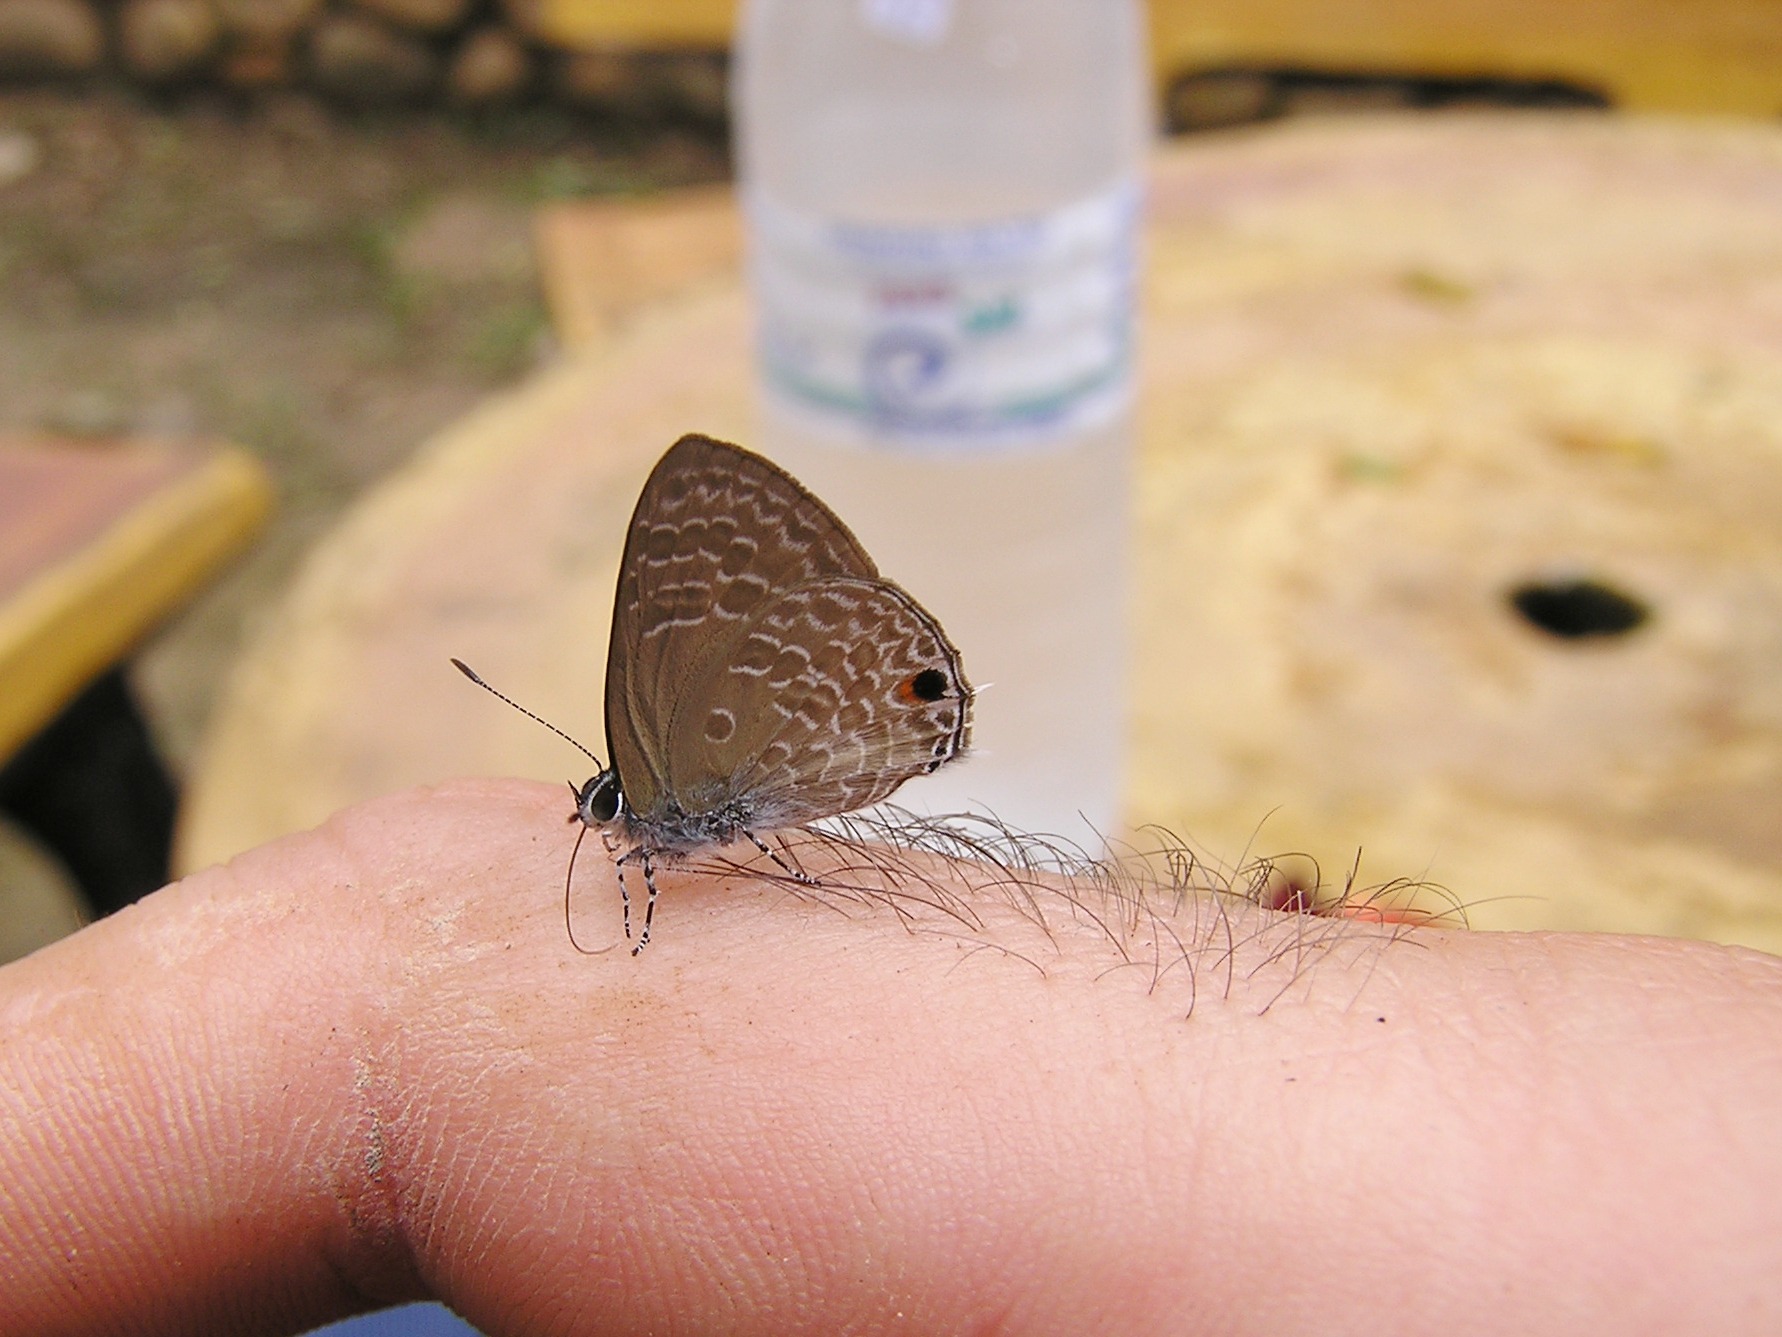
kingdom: Animalia
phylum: Arthropoda
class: Insecta
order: Lepidoptera
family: Lycaenidae
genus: Anthene
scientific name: Anthene lycaenina
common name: Pointed ciliate blue
